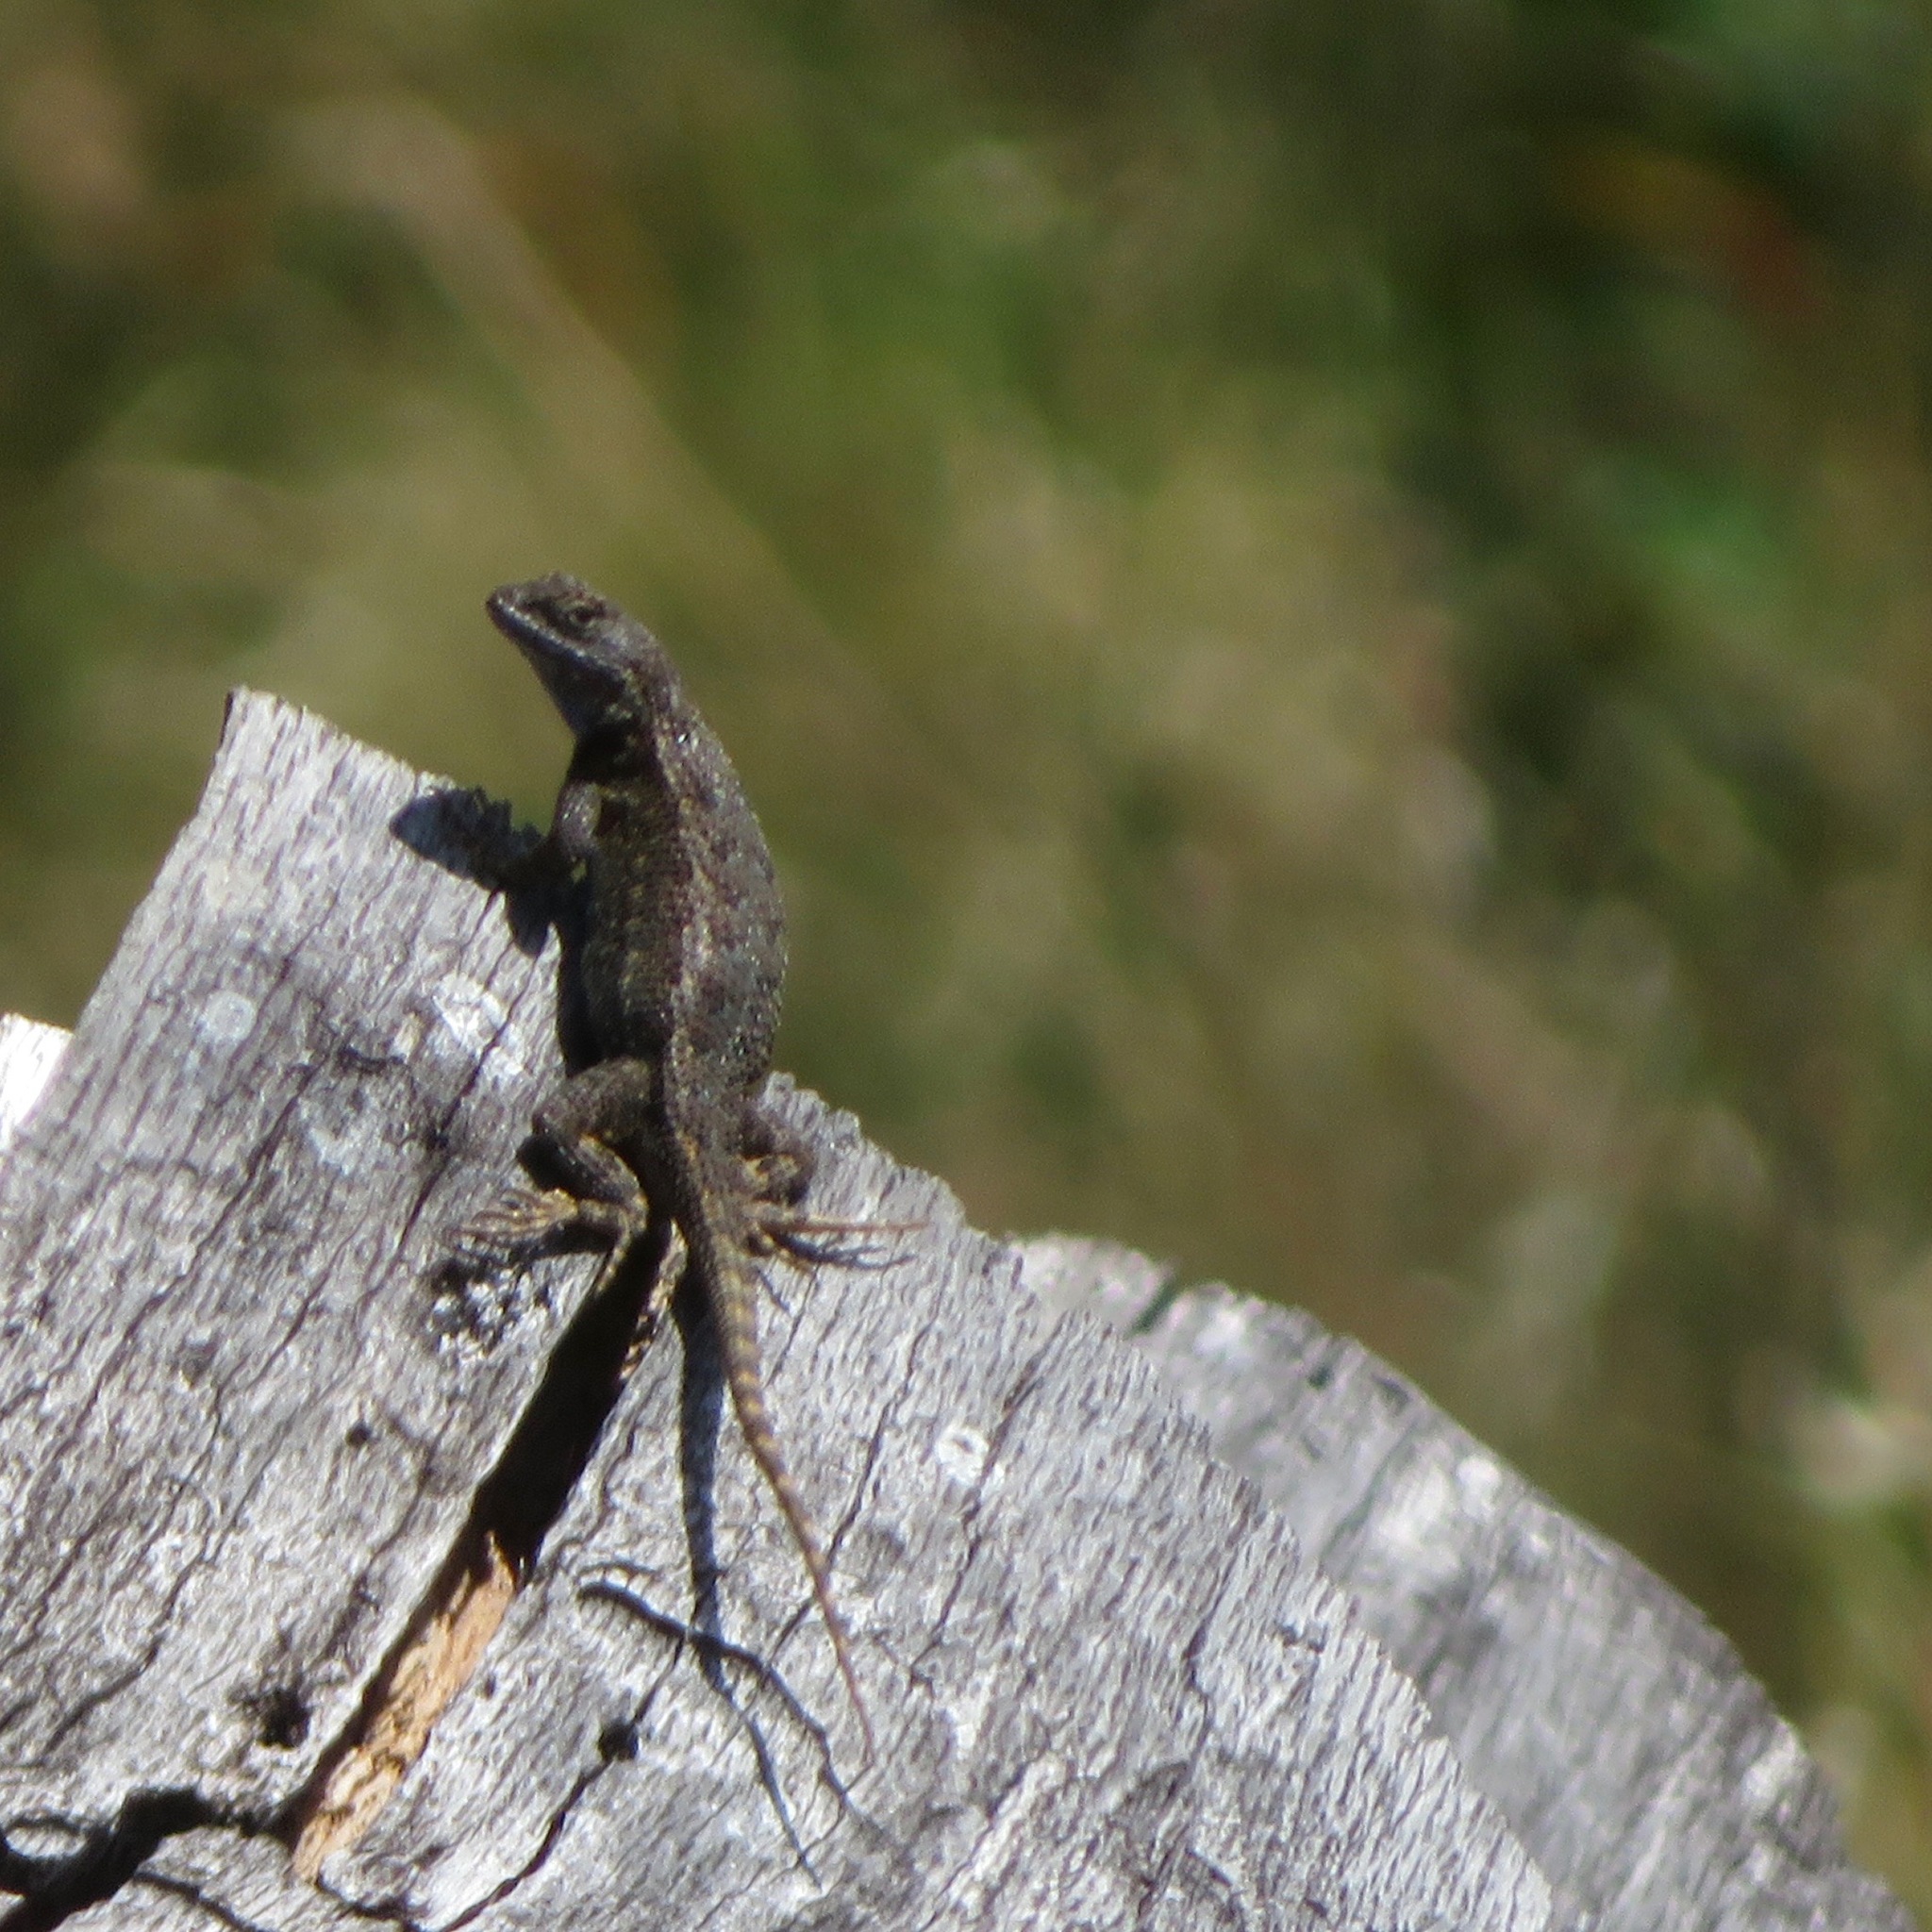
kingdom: Animalia
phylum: Chordata
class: Squamata
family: Phrynosomatidae
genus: Sceloporus
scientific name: Sceloporus occidentalis
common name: Western fence lizard
